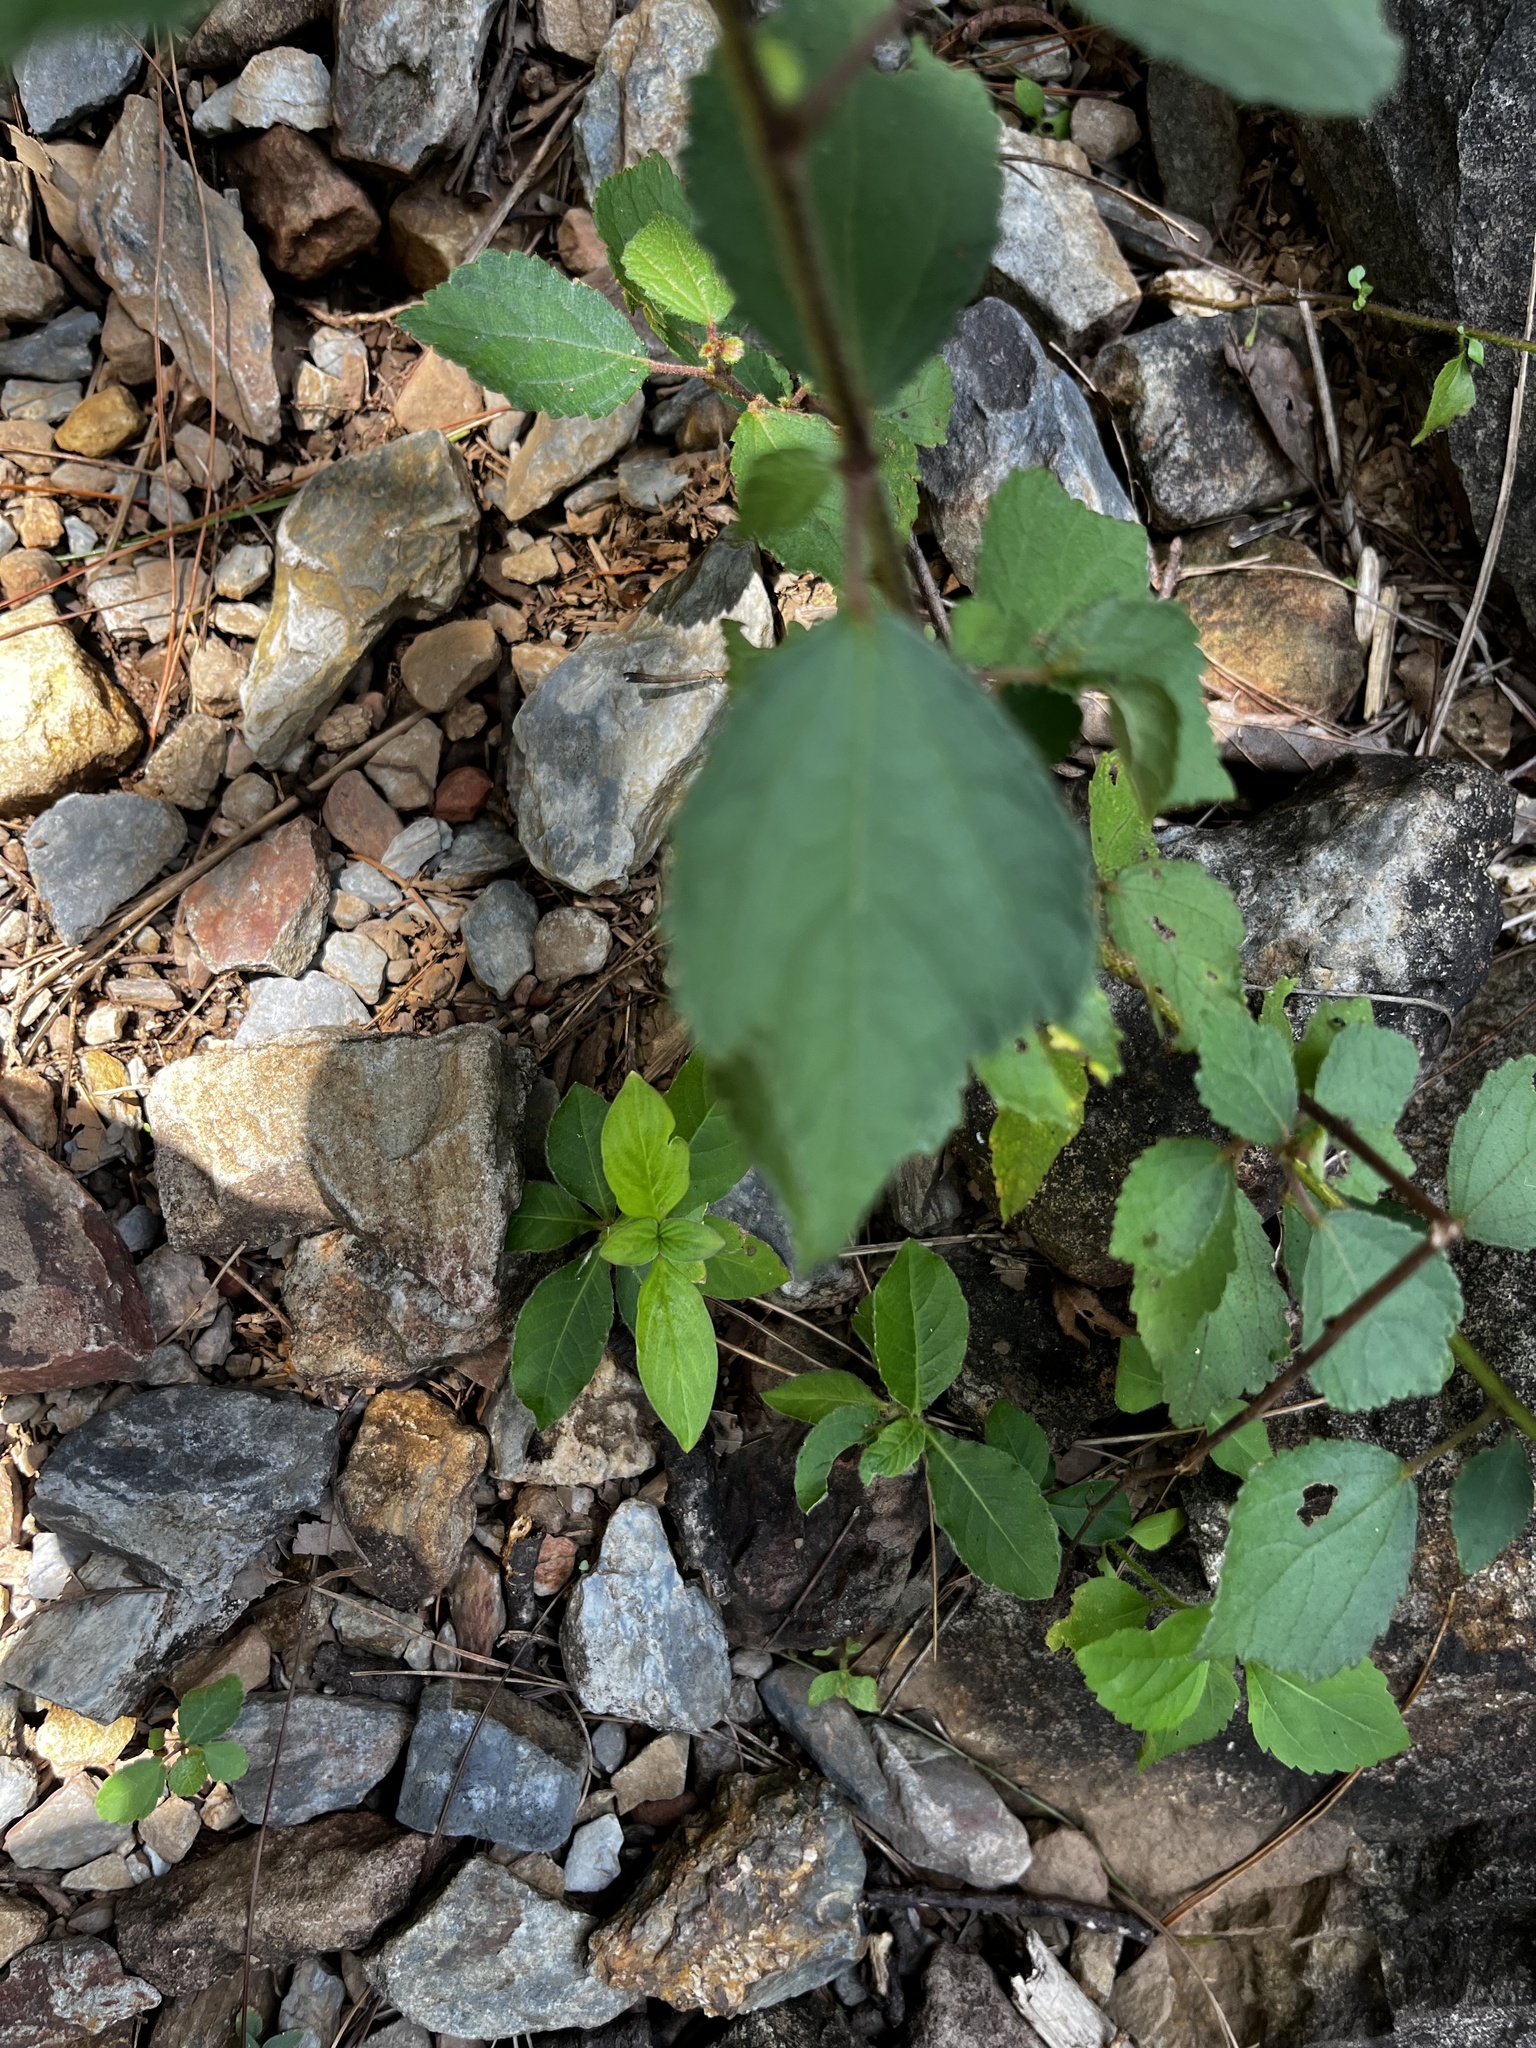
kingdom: Plantae
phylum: Tracheophyta
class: Magnoliopsida
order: Malvales
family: Malvaceae
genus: Triumfetta
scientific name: Triumfetta rhomboidea
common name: Diamond burbark
